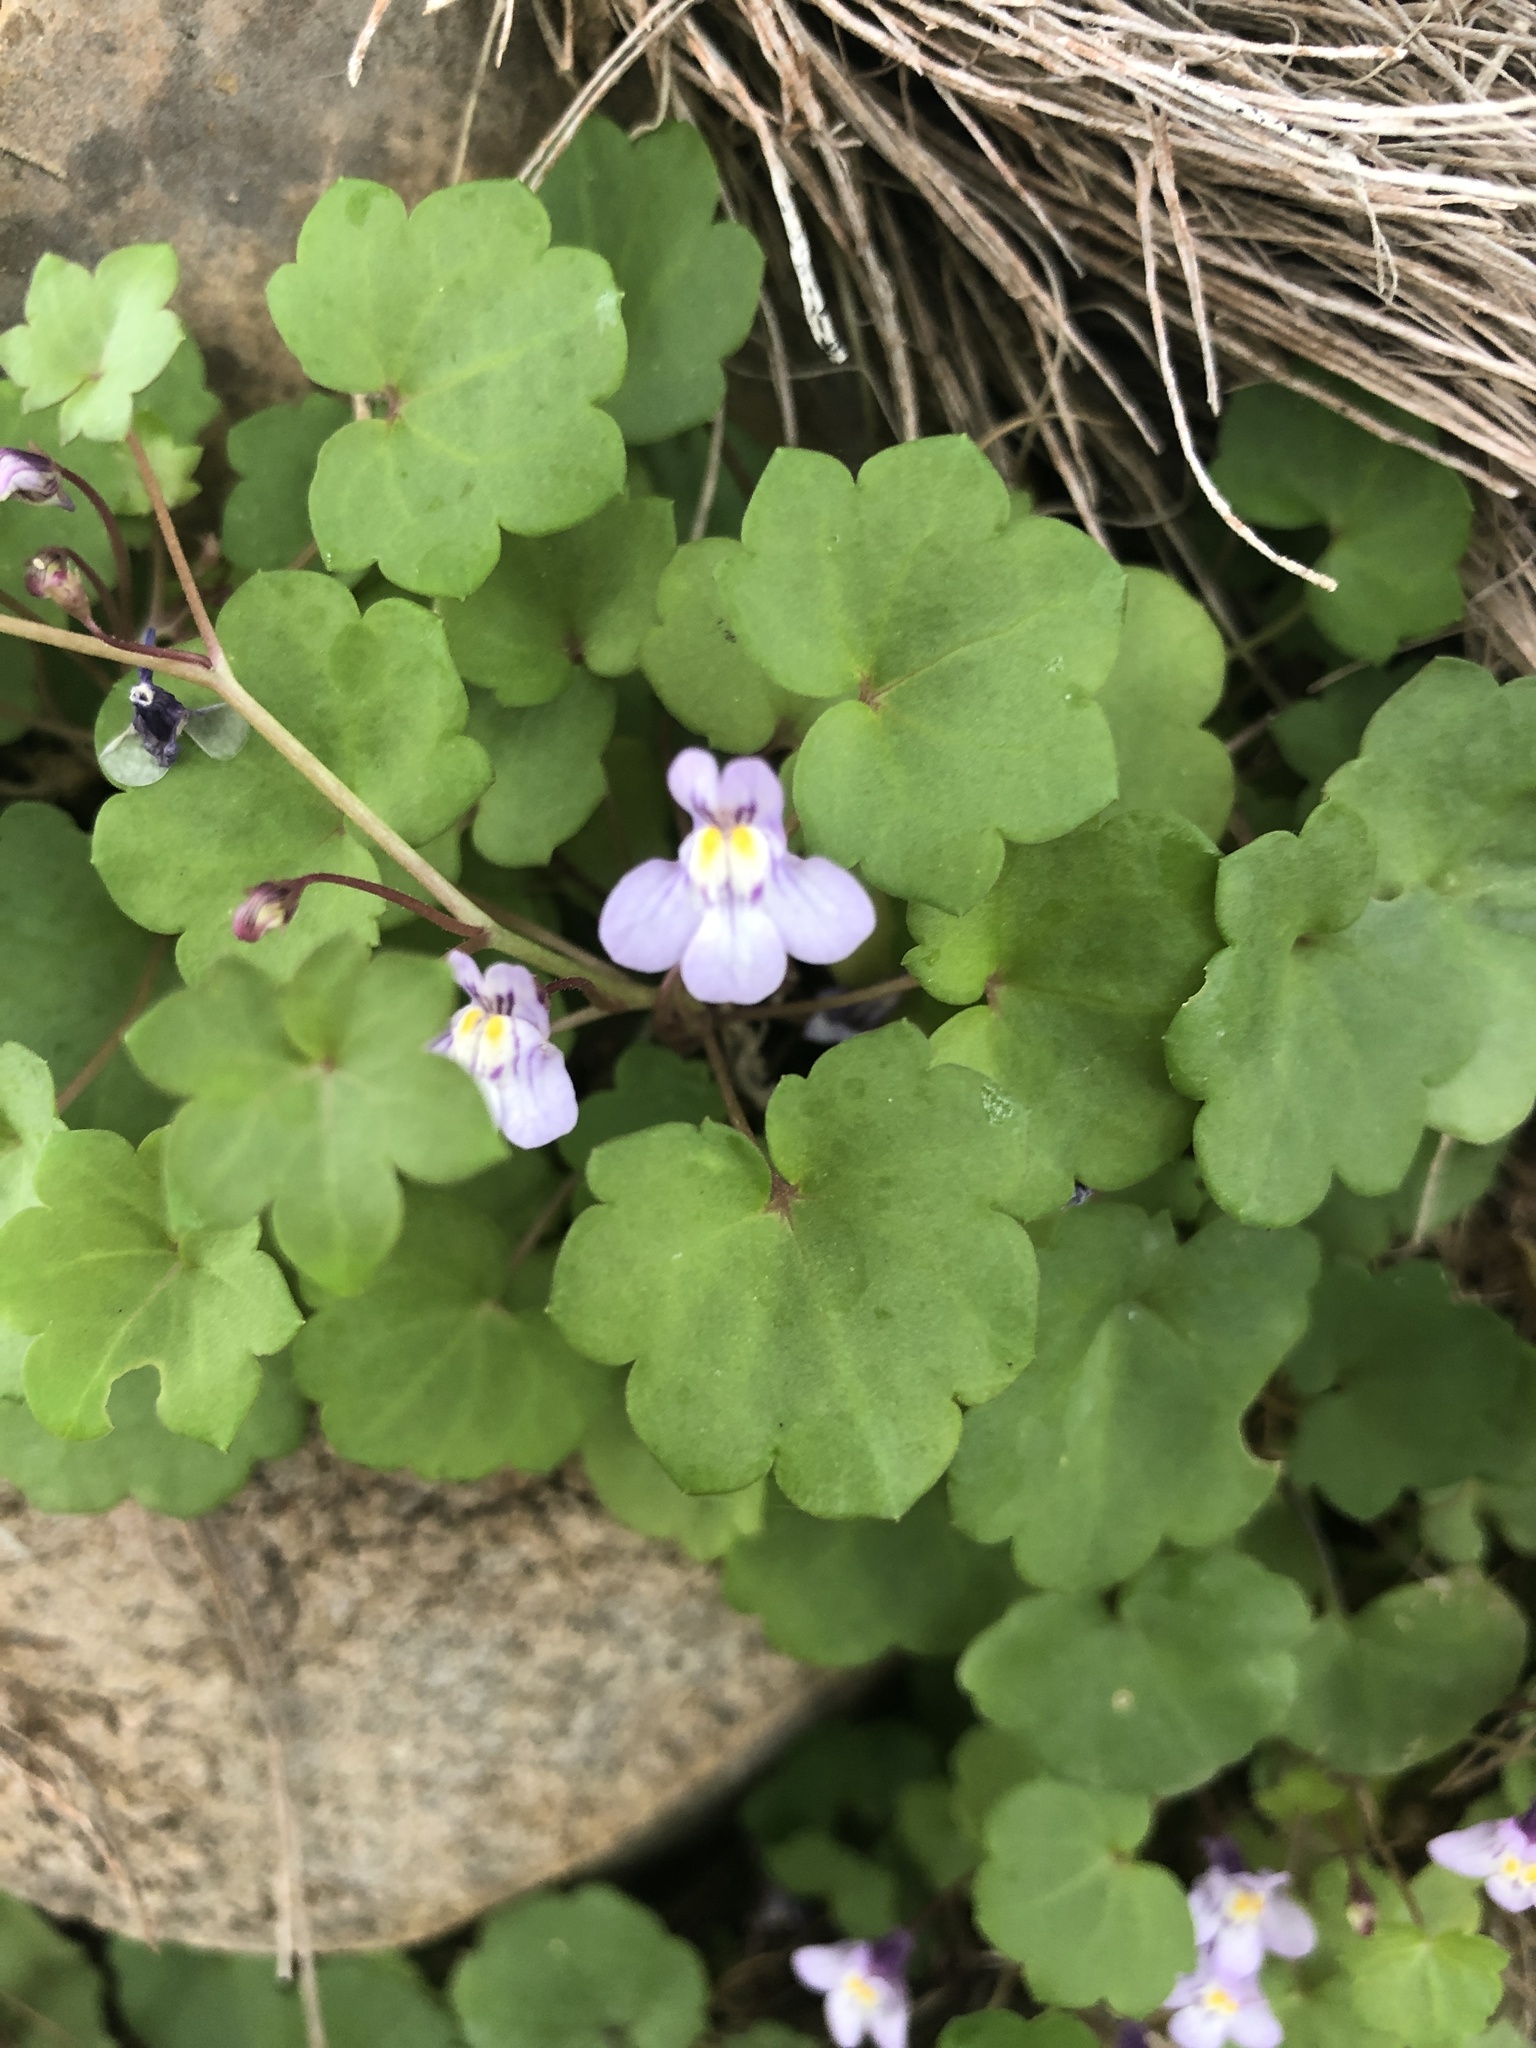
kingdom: Plantae
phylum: Tracheophyta
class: Magnoliopsida
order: Lamiales
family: Plantaginaceae
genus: Cymbalaria
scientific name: Cymbalaria muralis
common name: Ivy-leaved toadflax
